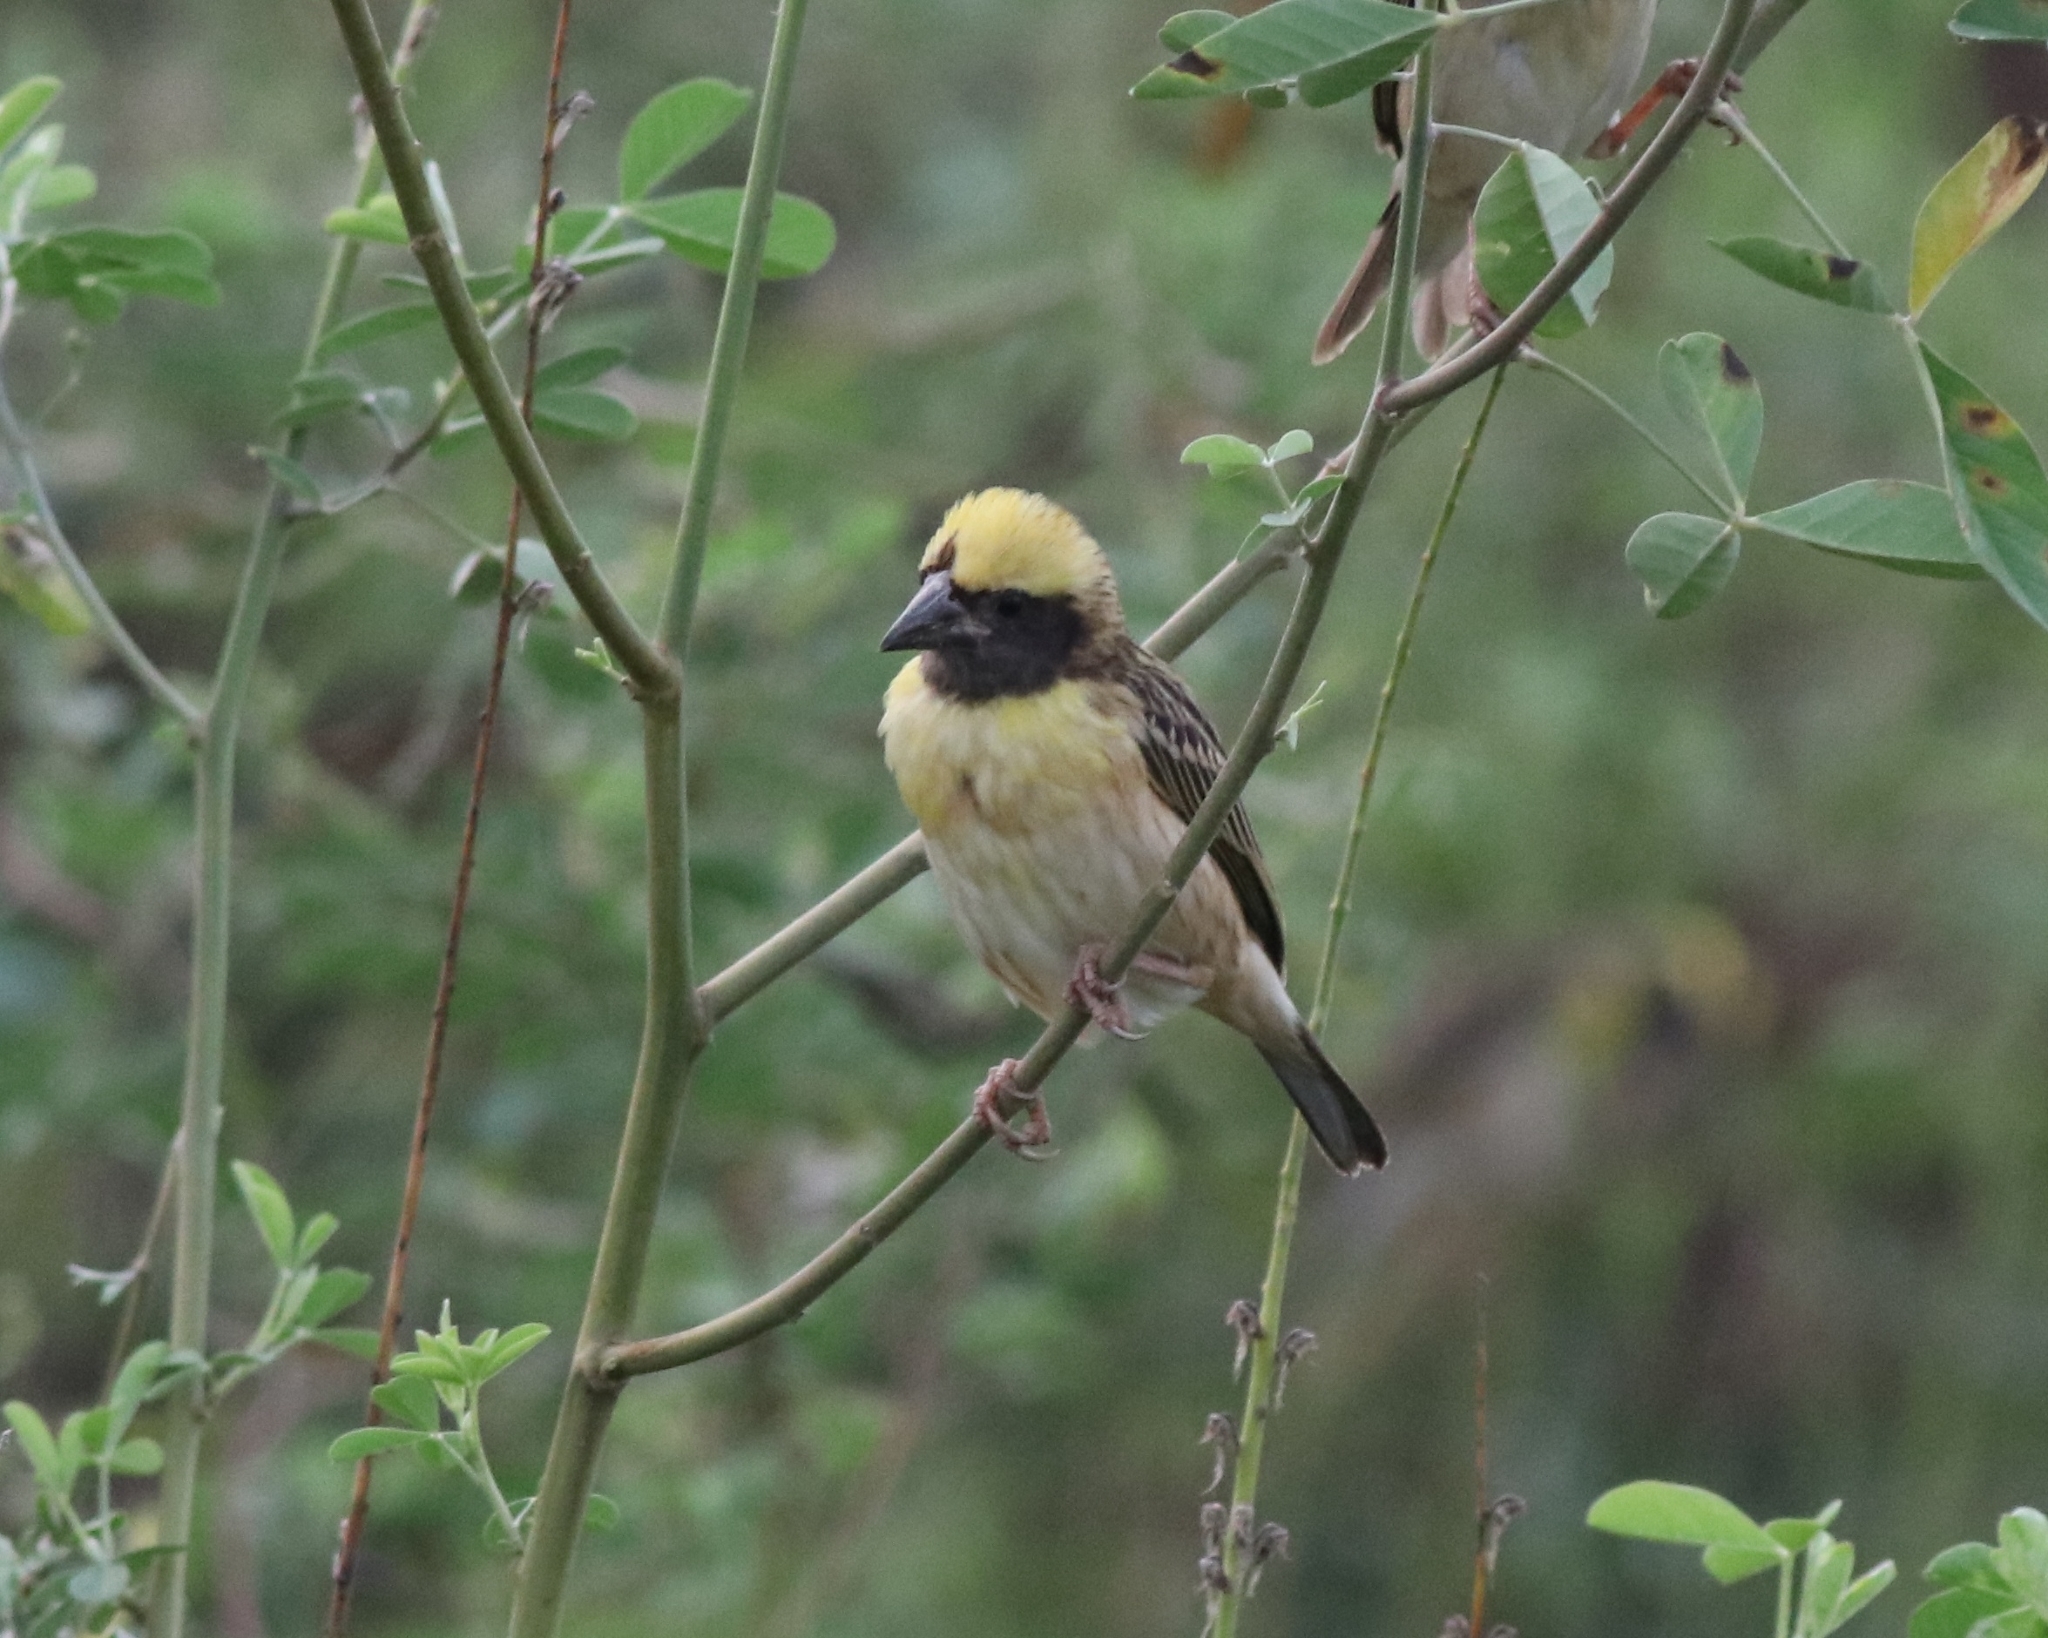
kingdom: Animalia
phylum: Chordata
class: Aves
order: Passeriformes
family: Ploceidae
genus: Ploceus
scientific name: Ploceus philippinus
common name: Baya weaver
